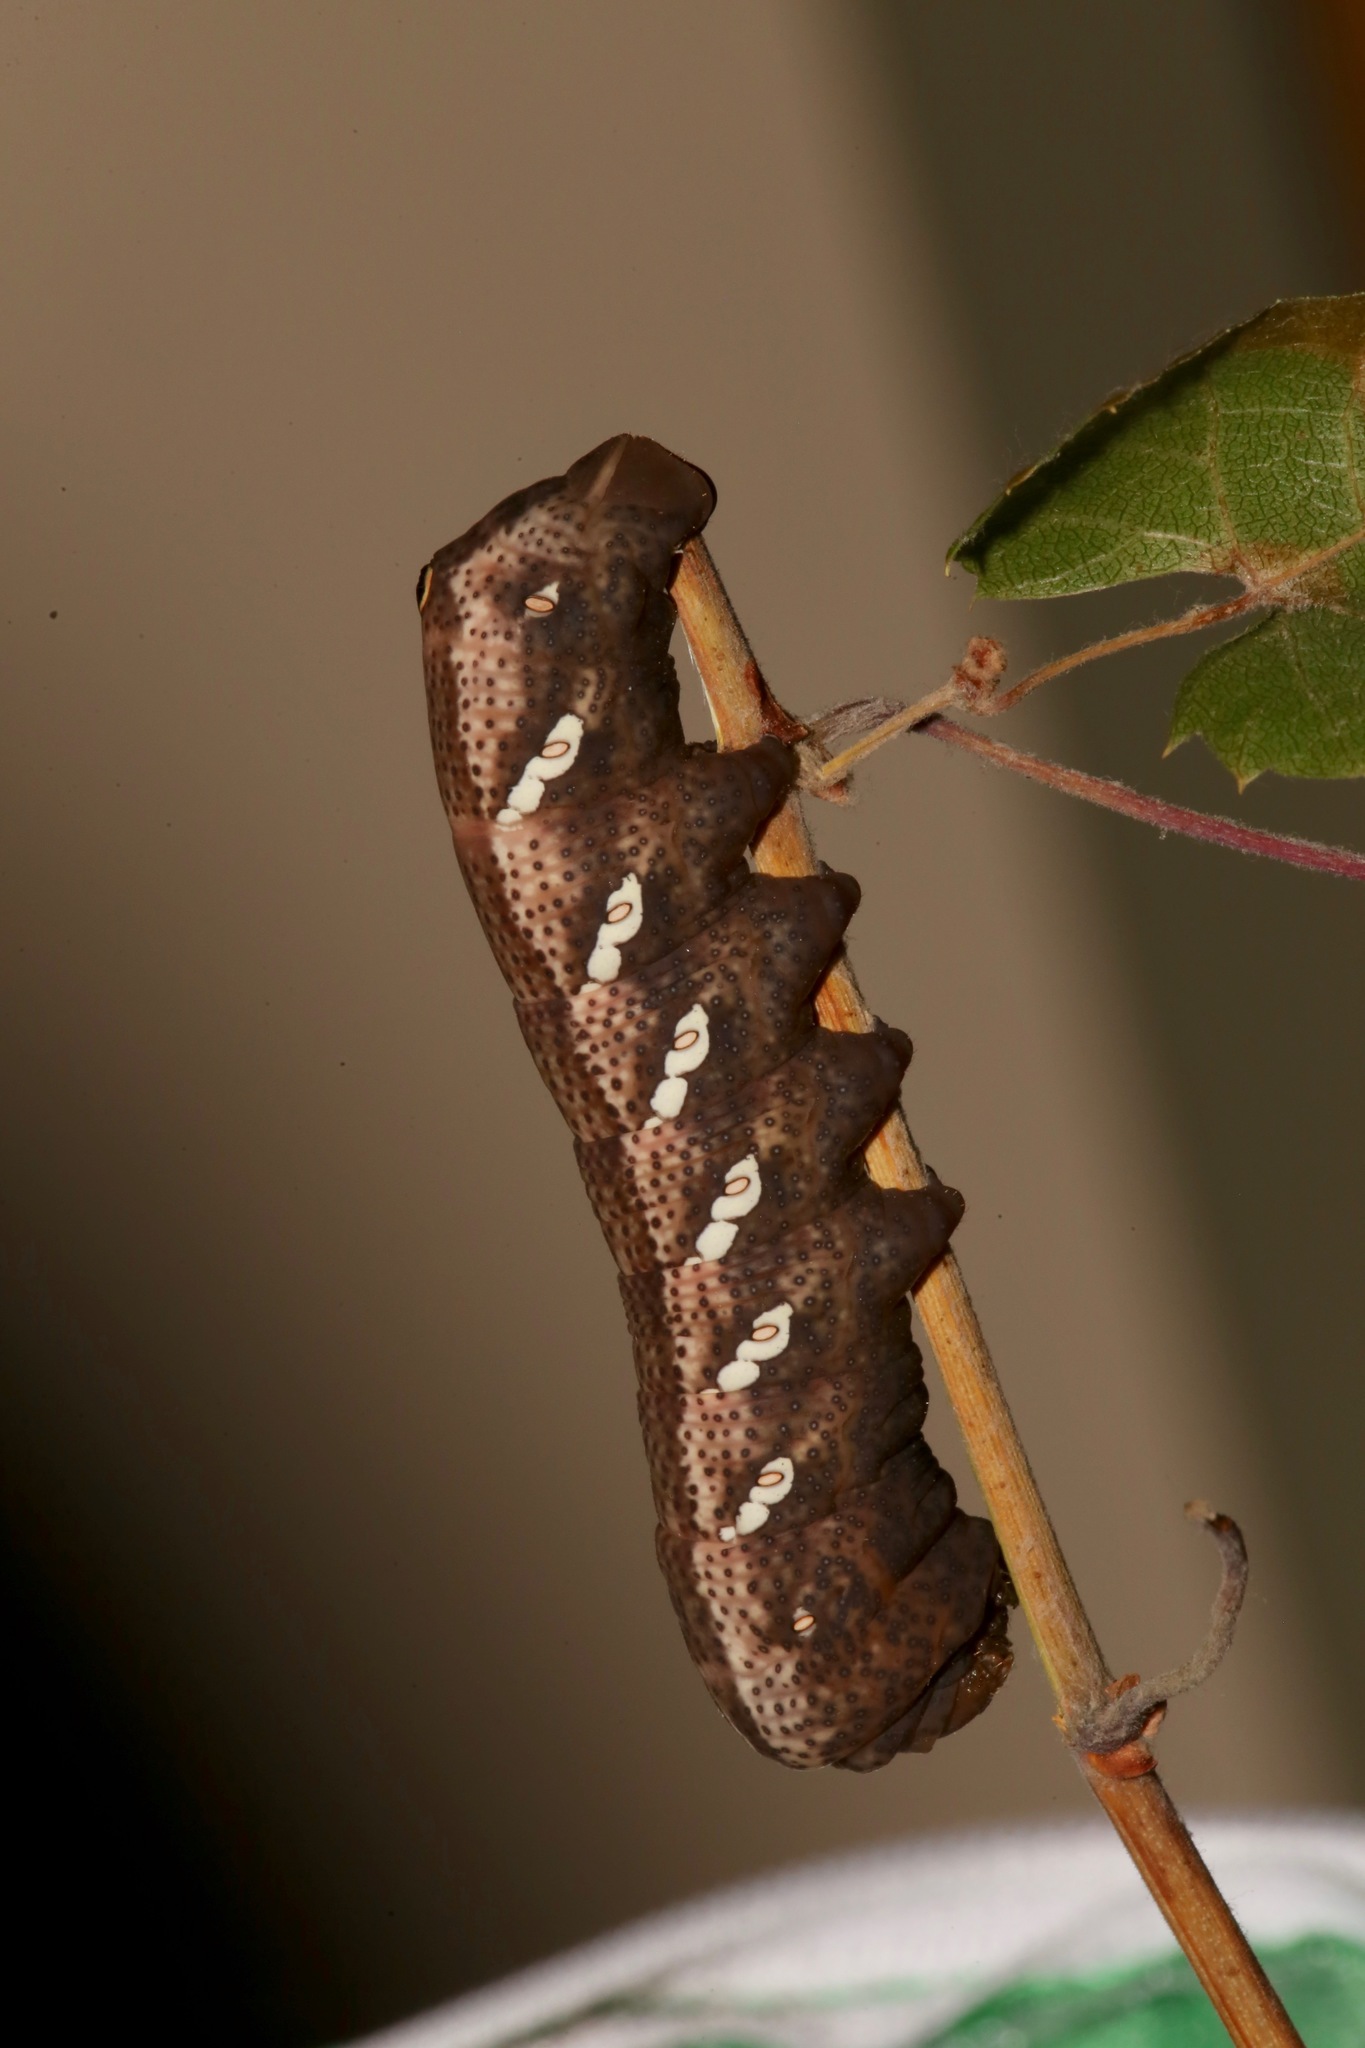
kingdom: Animalia
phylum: Arthropoda
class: Insecta
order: Lepidoptera
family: Sphingidae
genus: Eumorpha
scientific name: Eumorpha achemon
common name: Achemon sphinx
